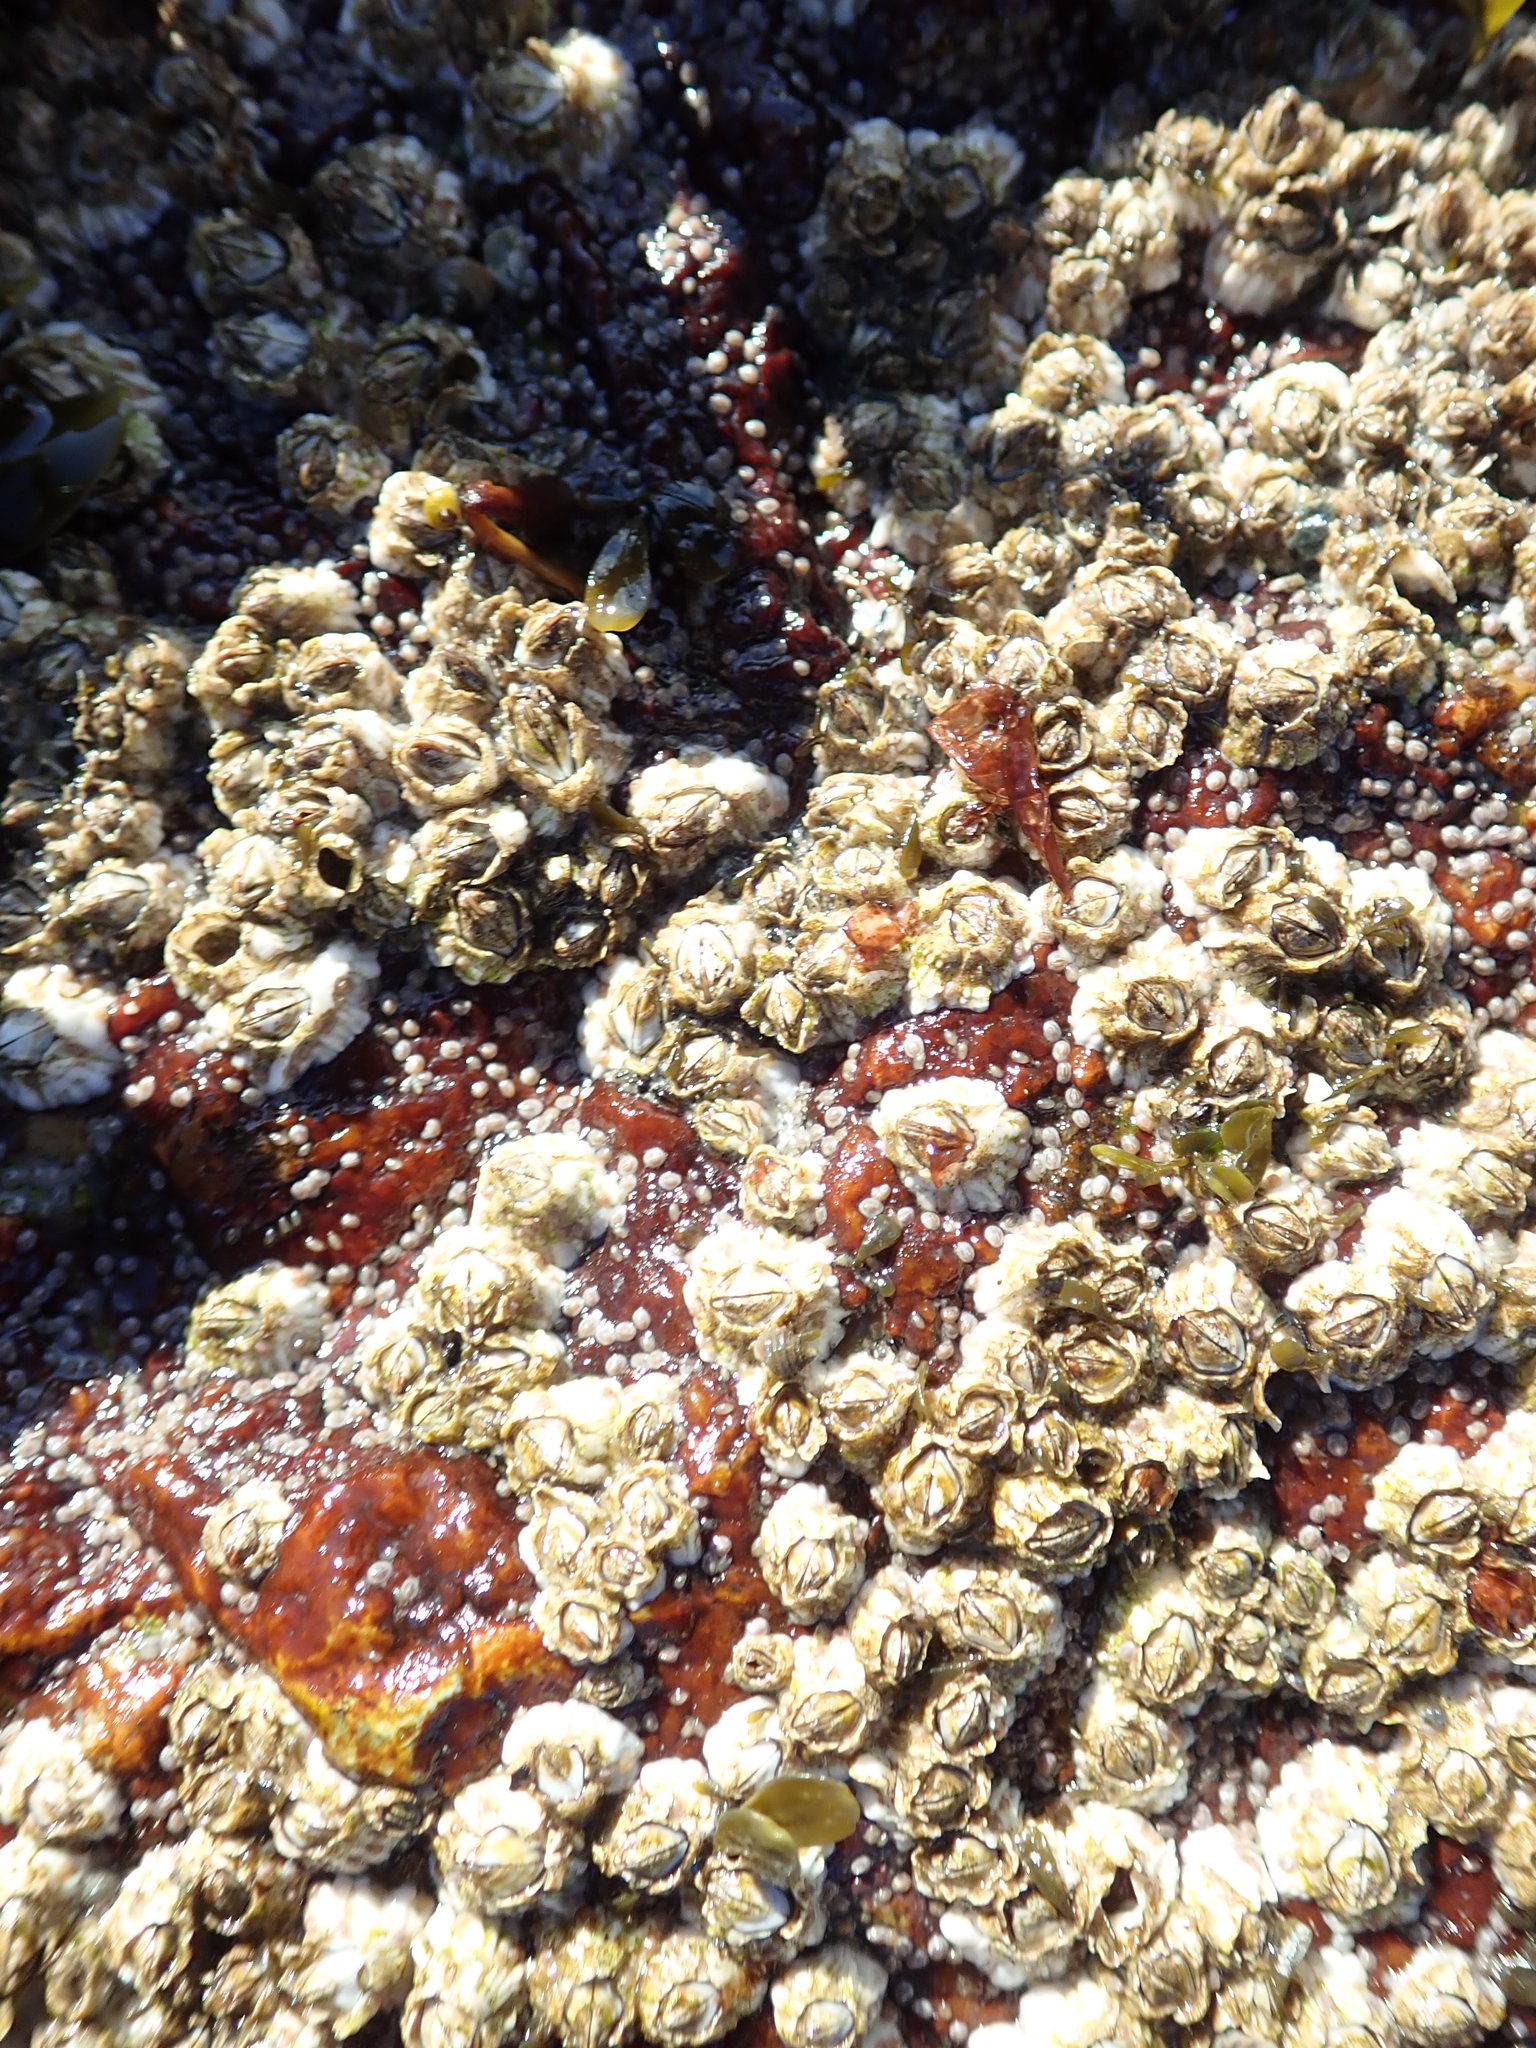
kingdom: Animalia
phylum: Arthropoda
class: Maxillopoda
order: Sessilia
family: Archaeobalanidae
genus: Semibalanus
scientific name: Semibalanus balanoides
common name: Acorn barnacle
